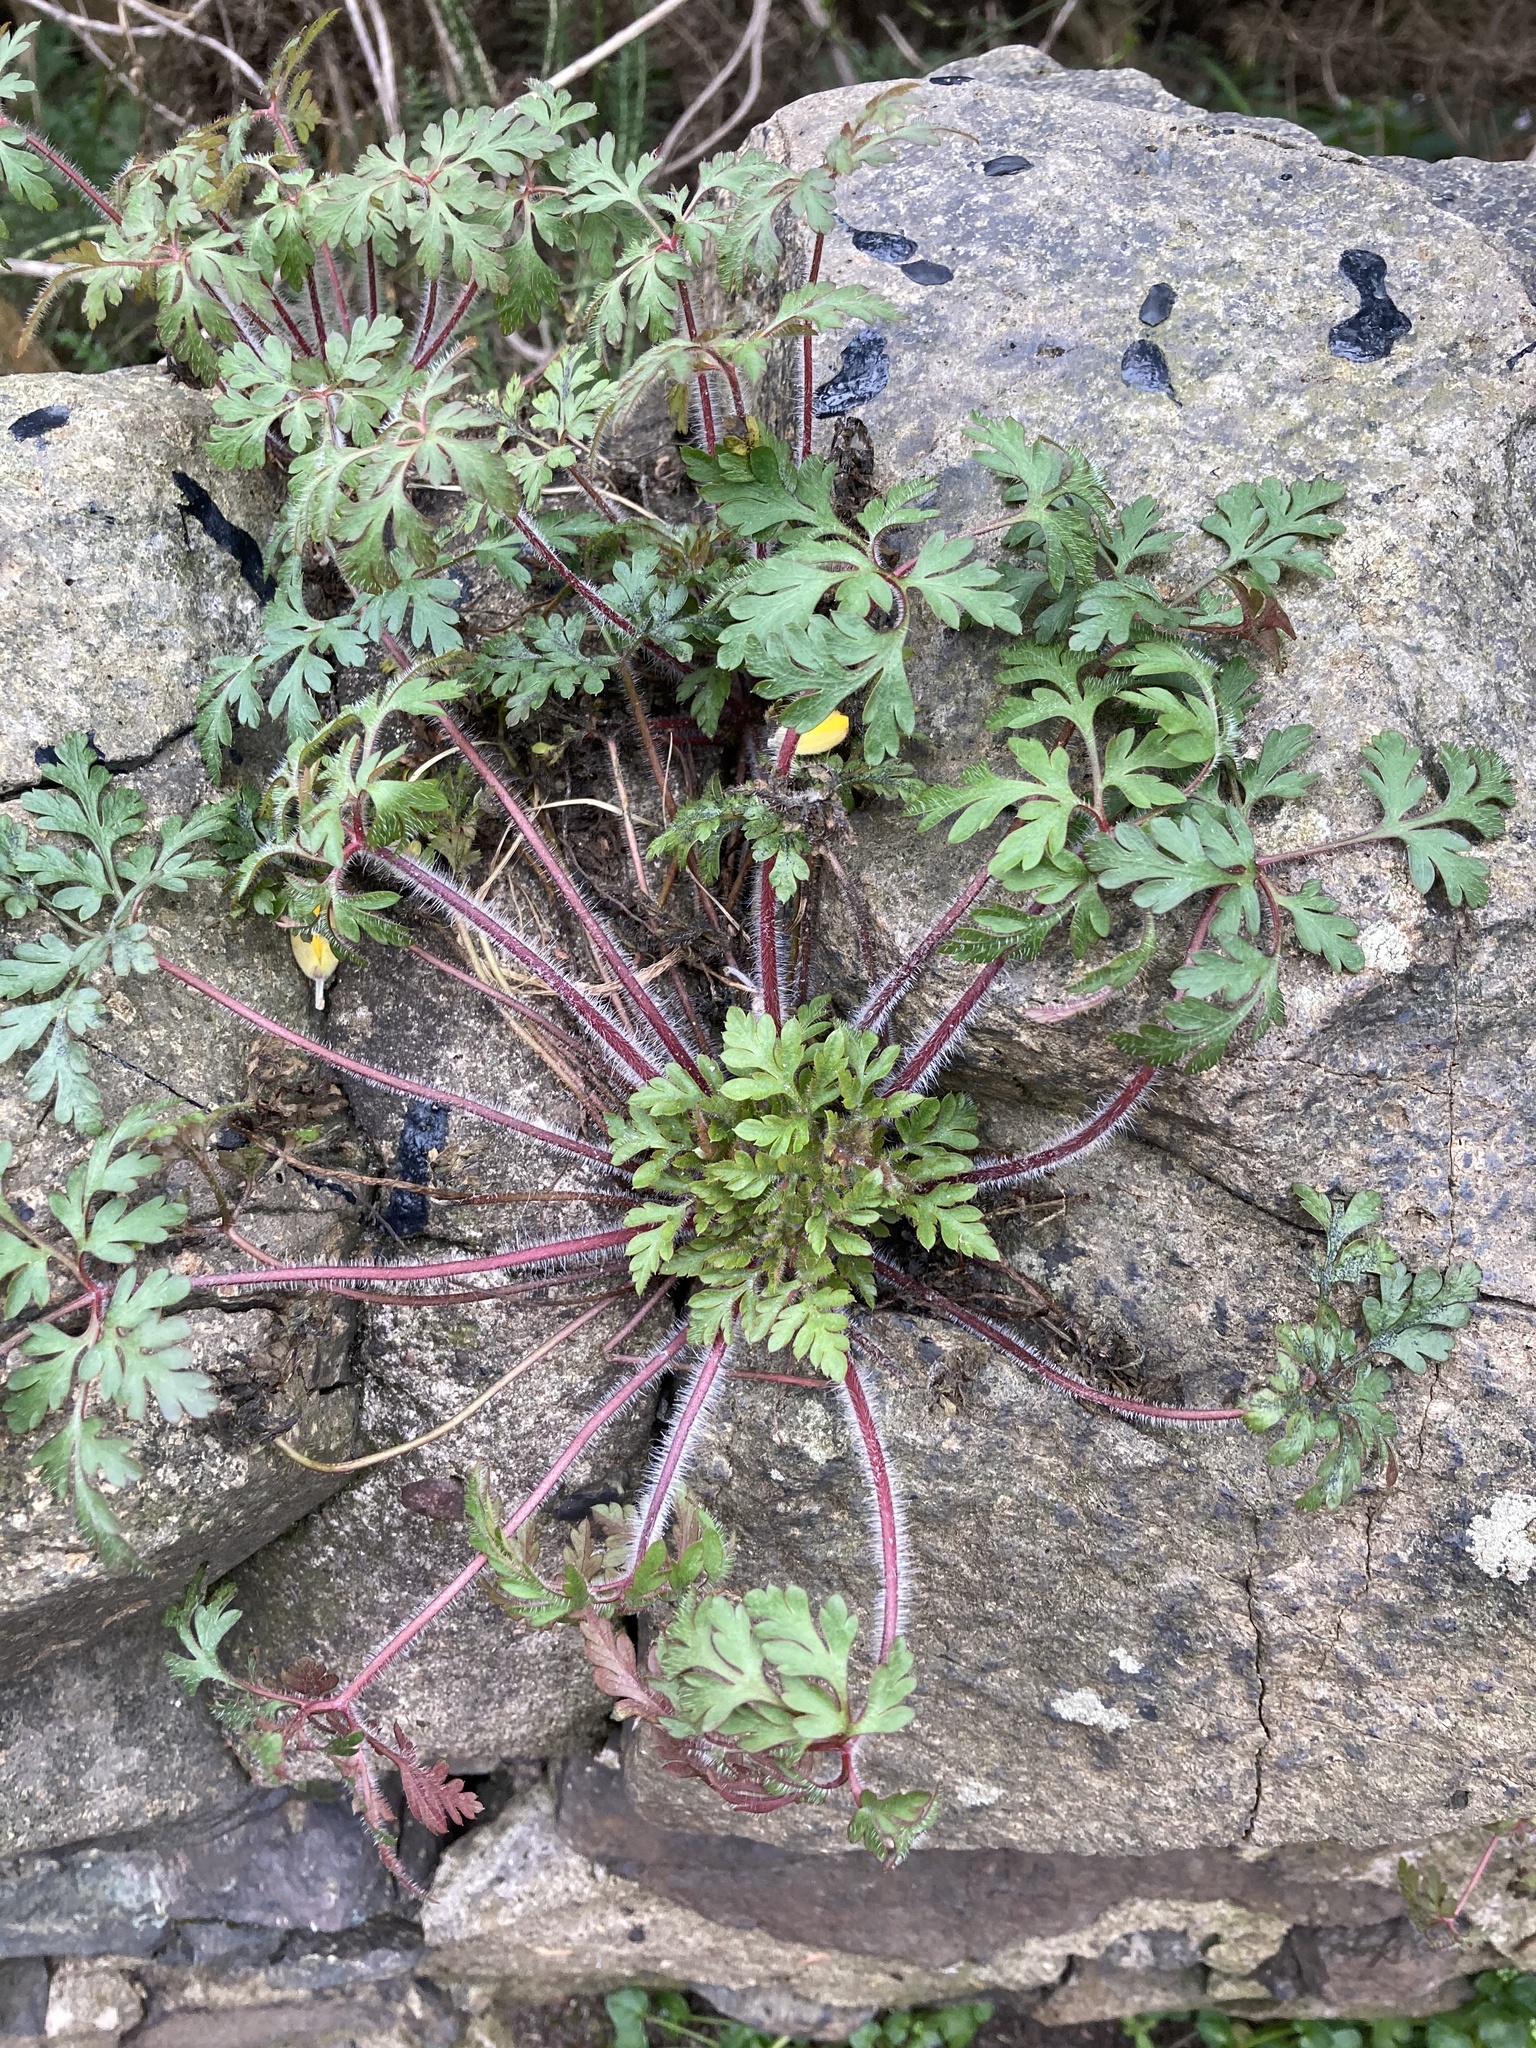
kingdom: Plantae
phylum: Tracheophyta
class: Magnoliopsida
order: Geraniales
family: Geraniaceae
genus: Geranium
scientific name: Geranium robertianum
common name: Herb-robert
